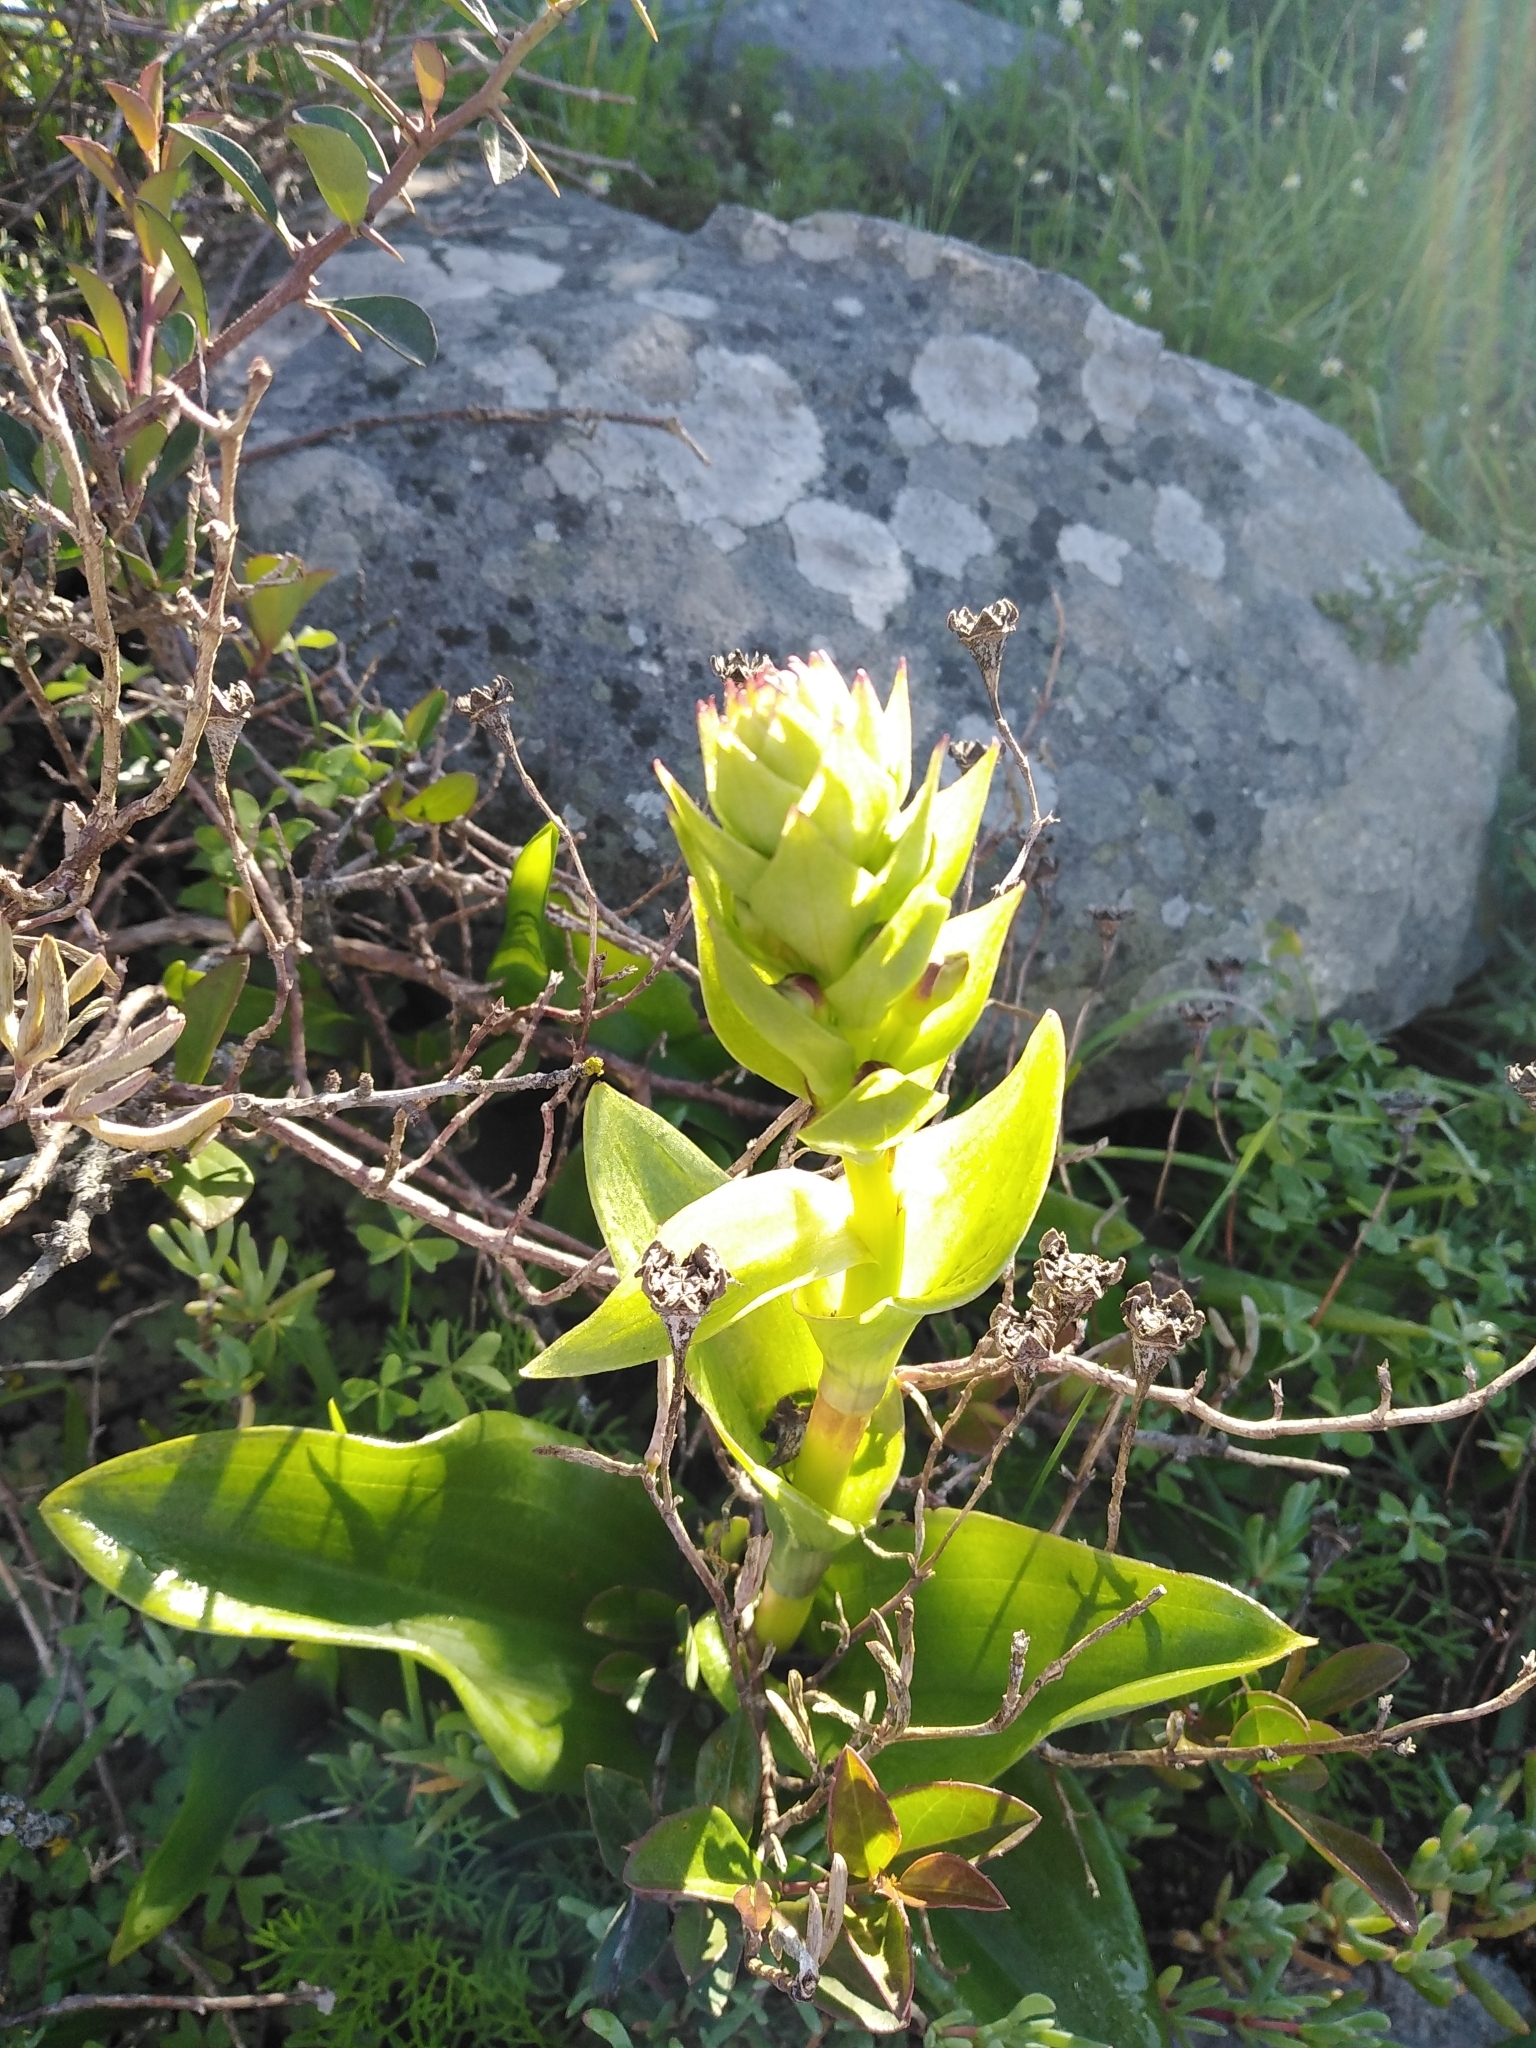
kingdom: Plantae
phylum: Tracheophyta
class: Liliopsida
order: Asparagales
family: Orchidaceae
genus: Satyrium
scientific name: Satyrium odorum
